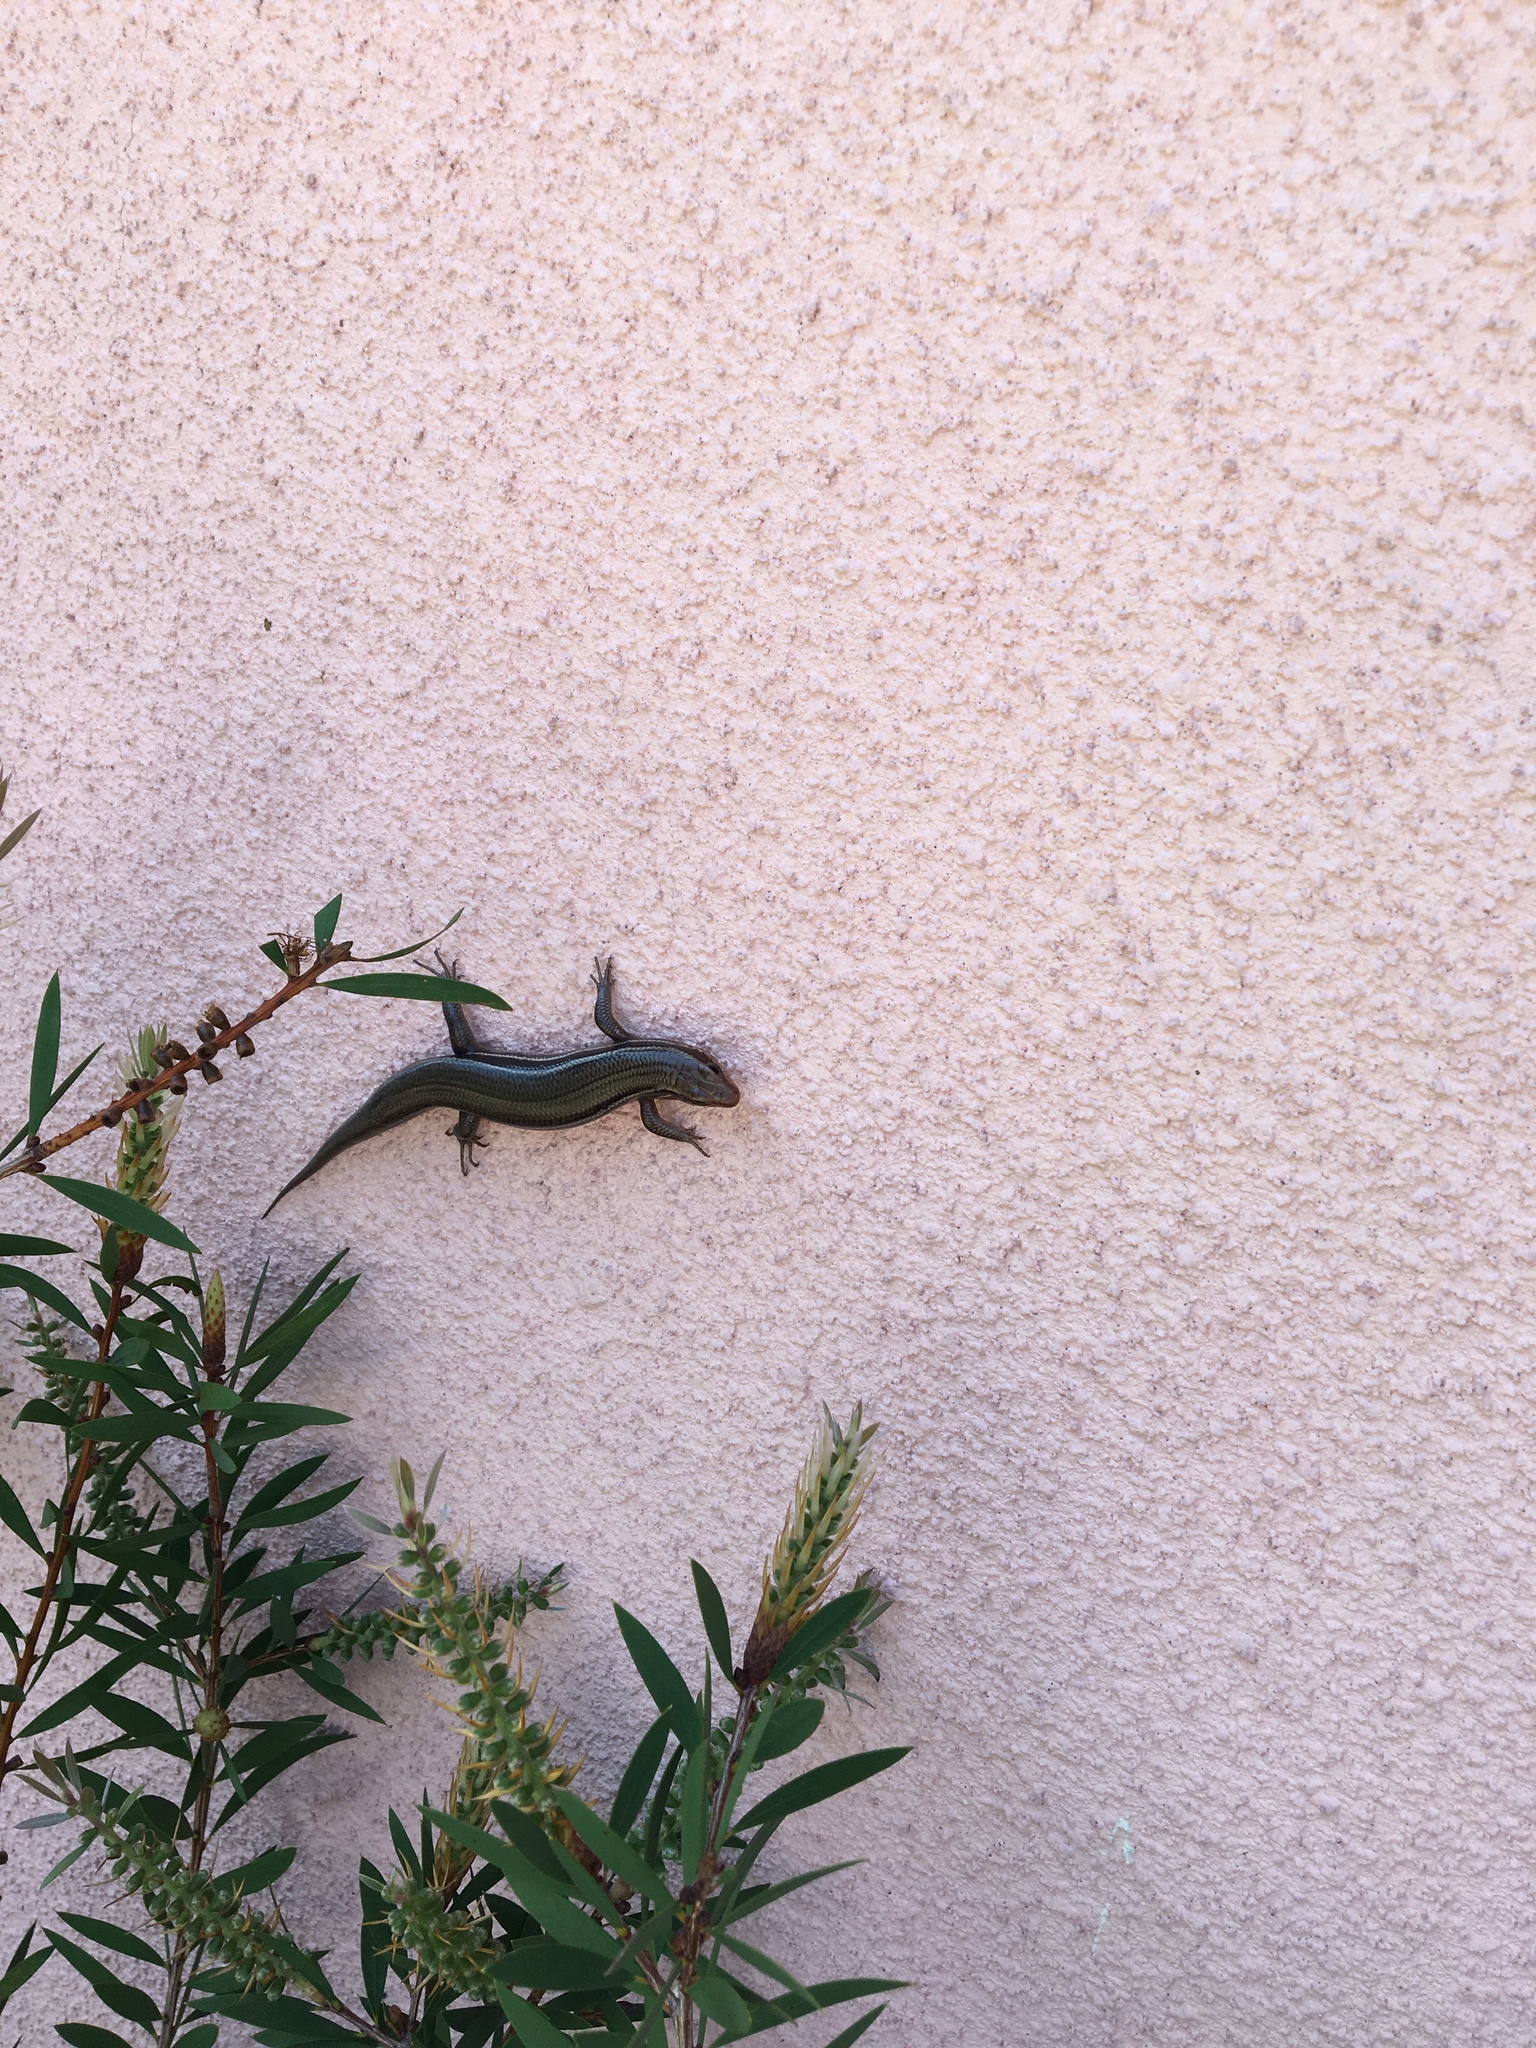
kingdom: Animalia
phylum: Chordata
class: Squamata
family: Scincidae
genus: Plestiodon
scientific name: Plestiodon inexpectatus
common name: Southeastern five-lined skink
